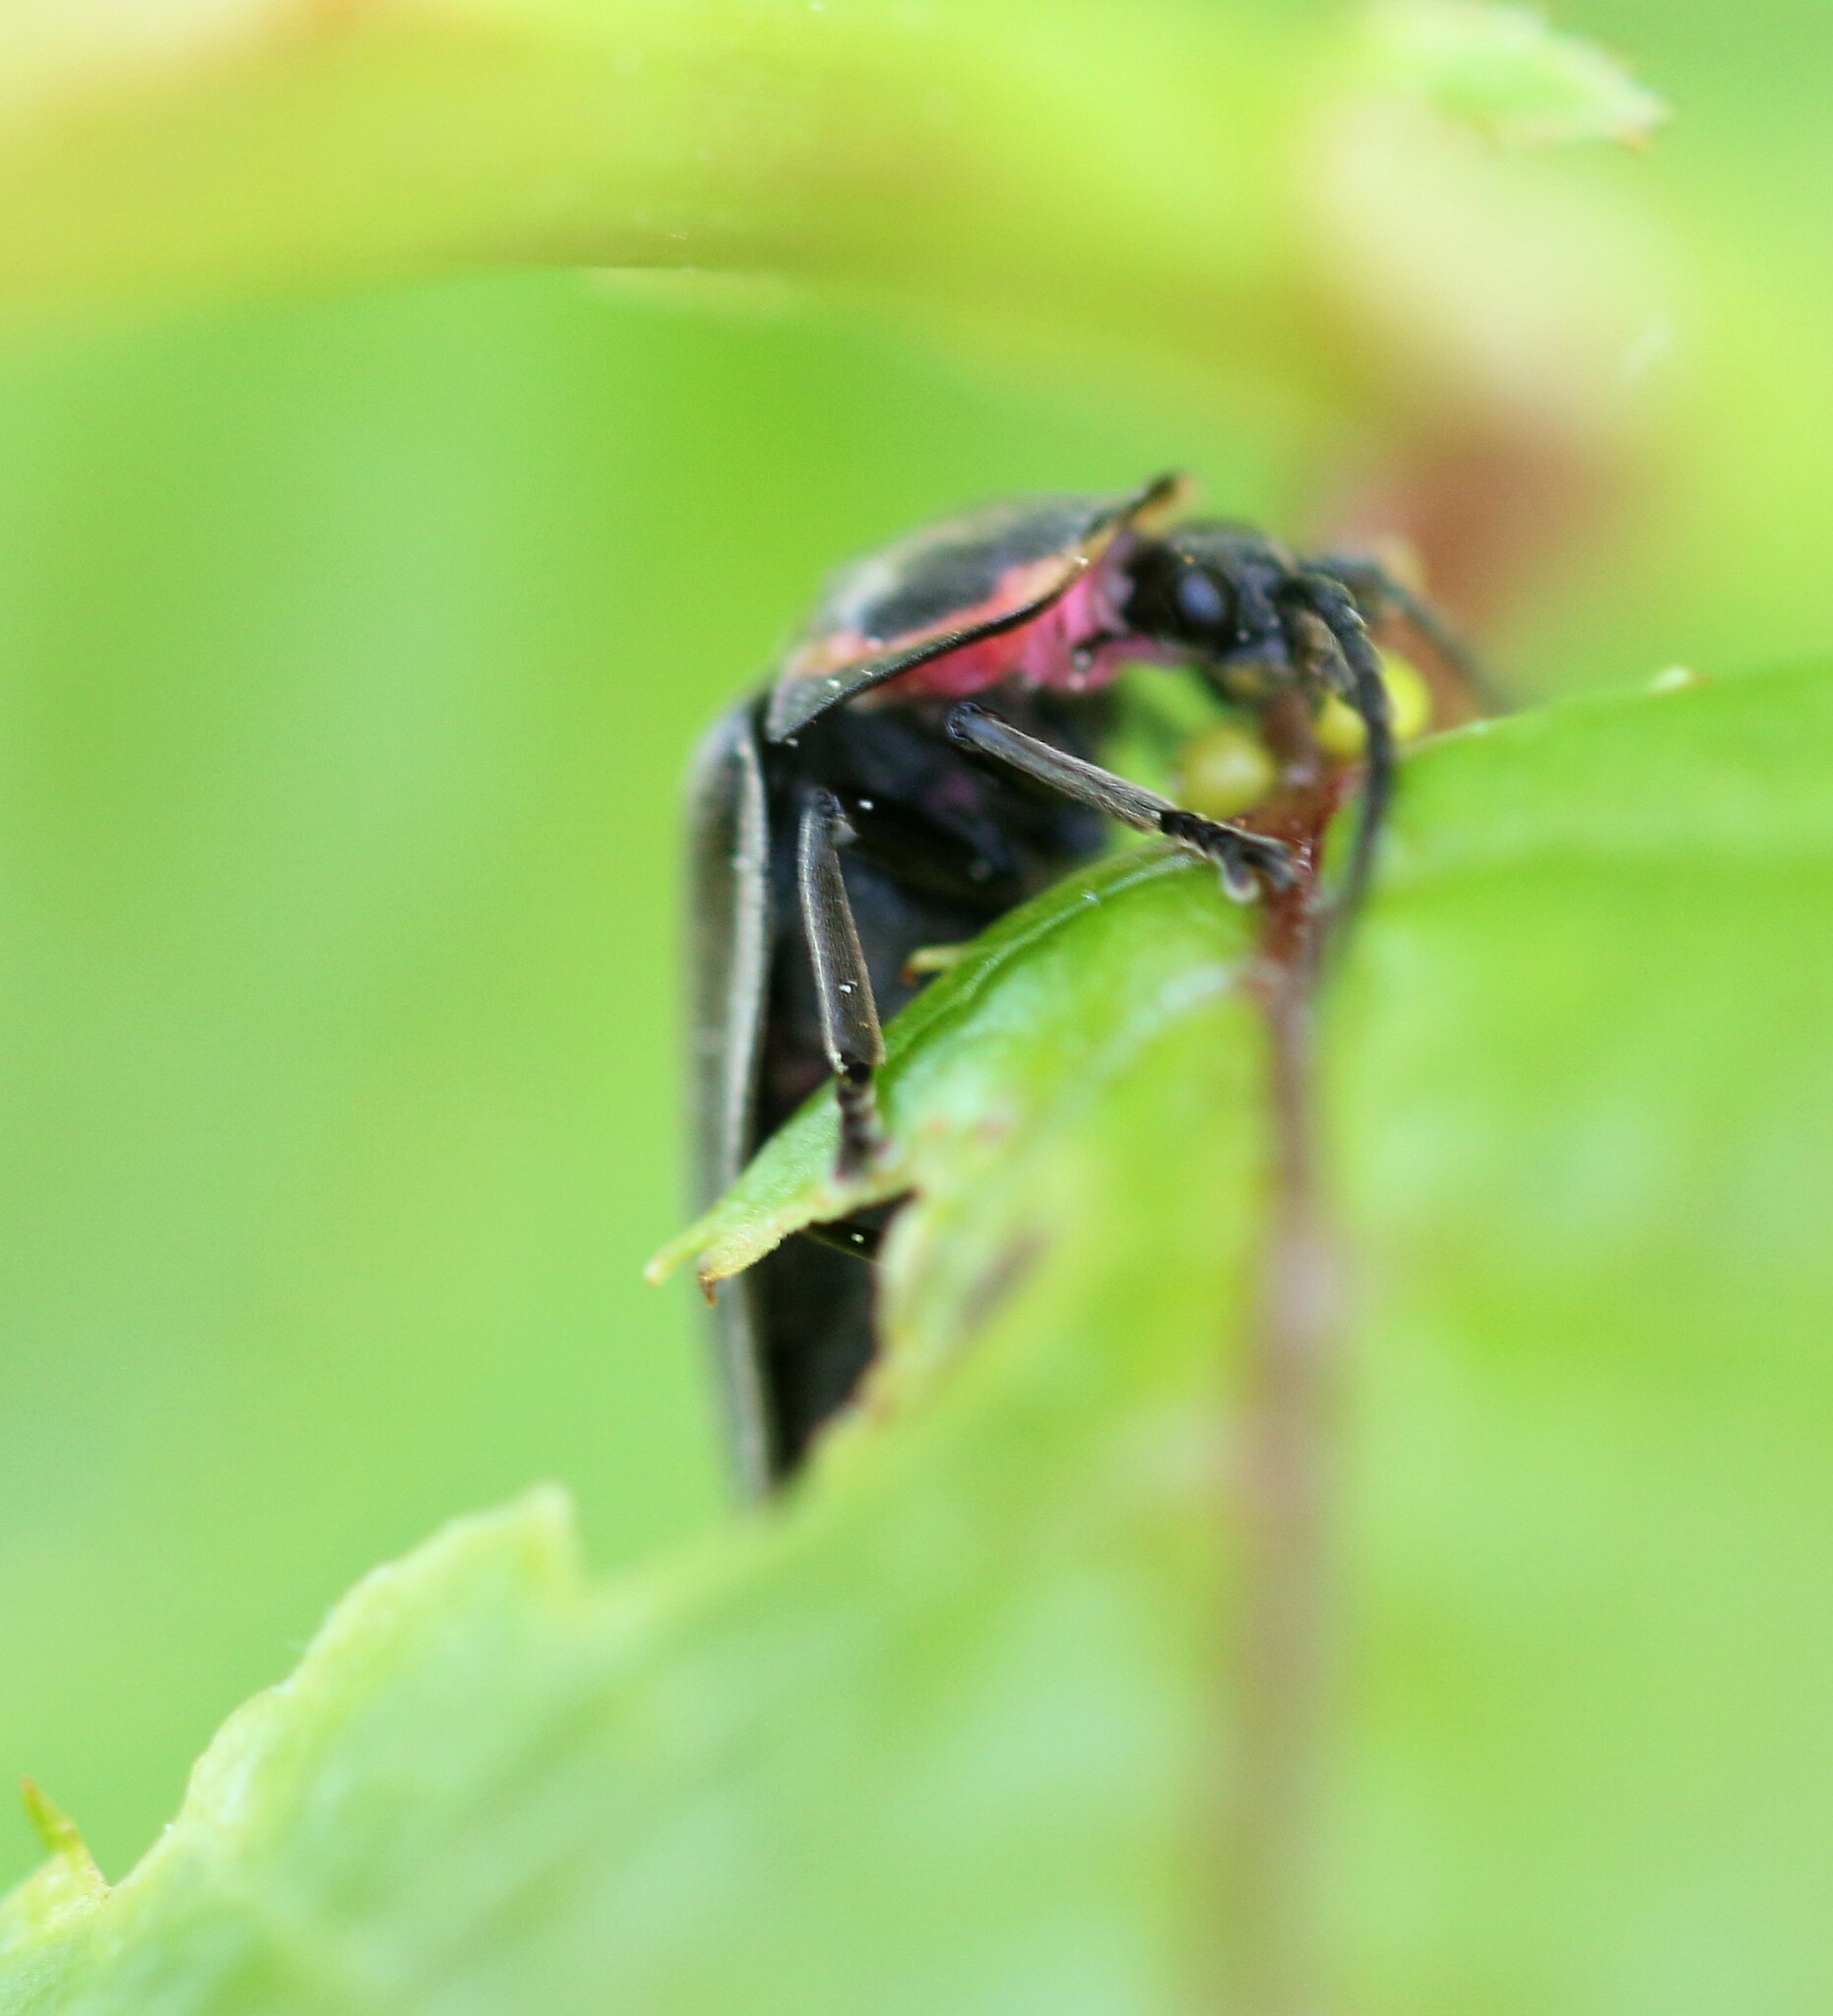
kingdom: Animalia
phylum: Arthropoda
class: Insecta
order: Coleoptera
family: Lampyridae
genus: Photinus
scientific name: Photinus corrusca
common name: Winter firefly
